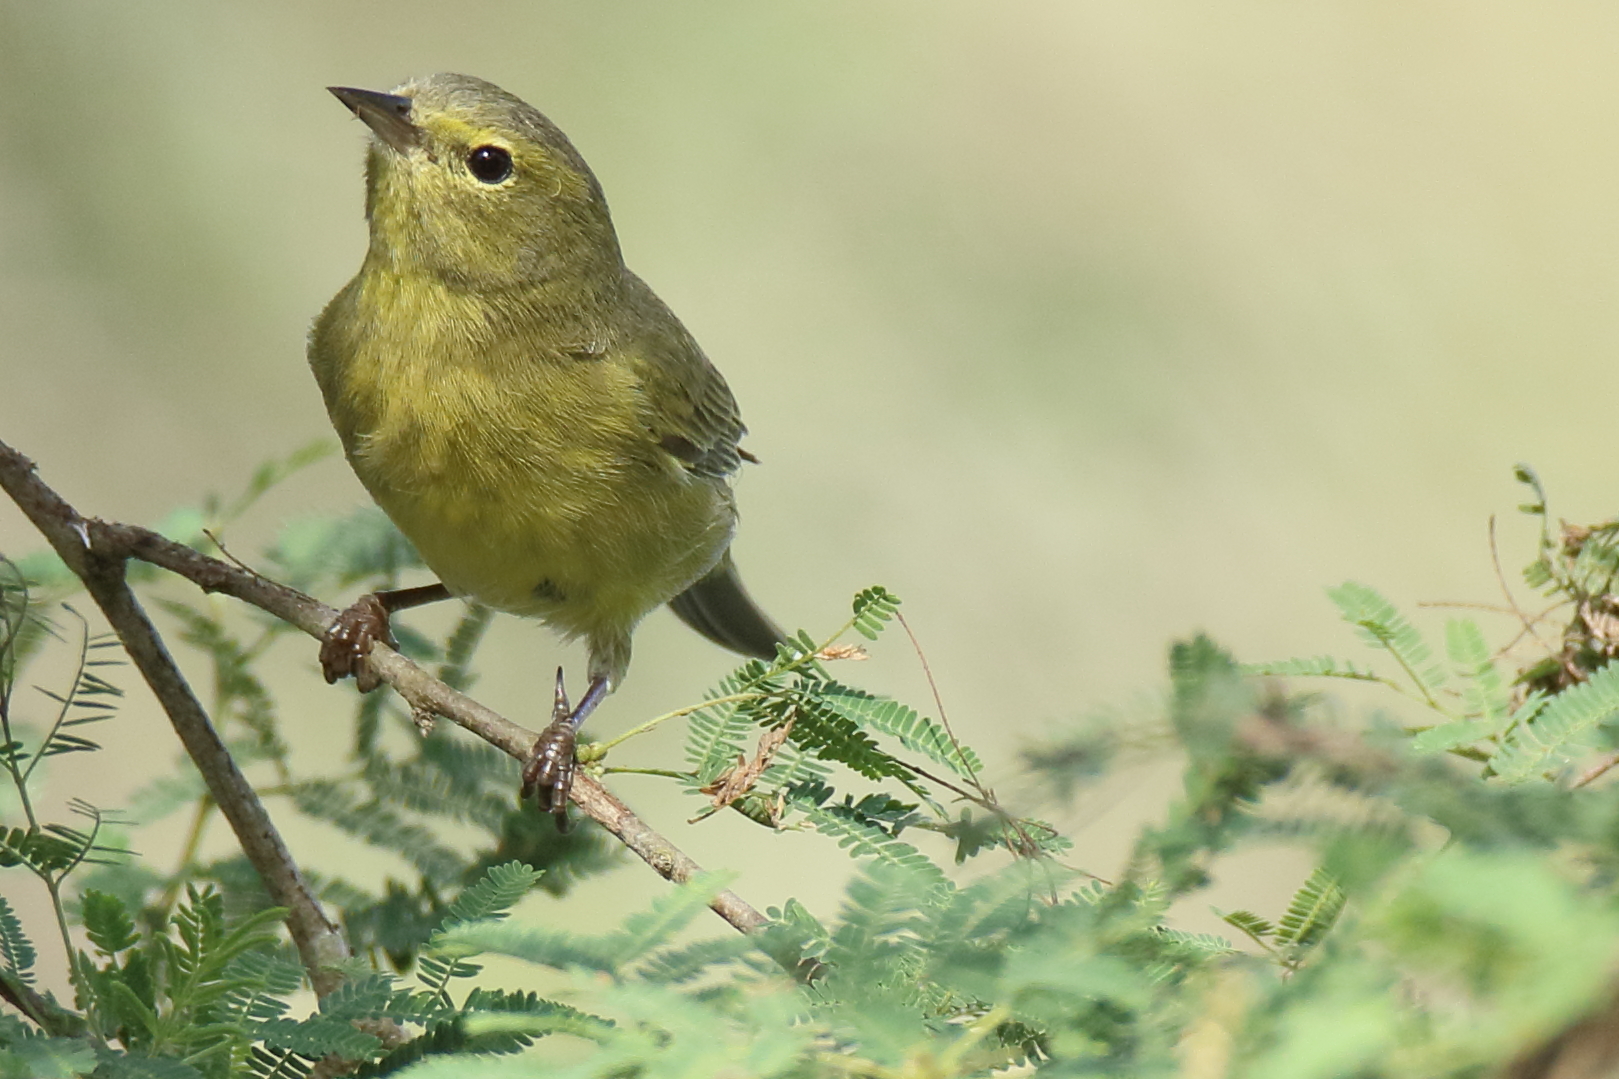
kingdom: Animalia
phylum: Chordata
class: Aves
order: Passeriformes
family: Parulidae
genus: Leiothlypis
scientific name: Leiothlypis celata
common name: Orange-crowned warbler
